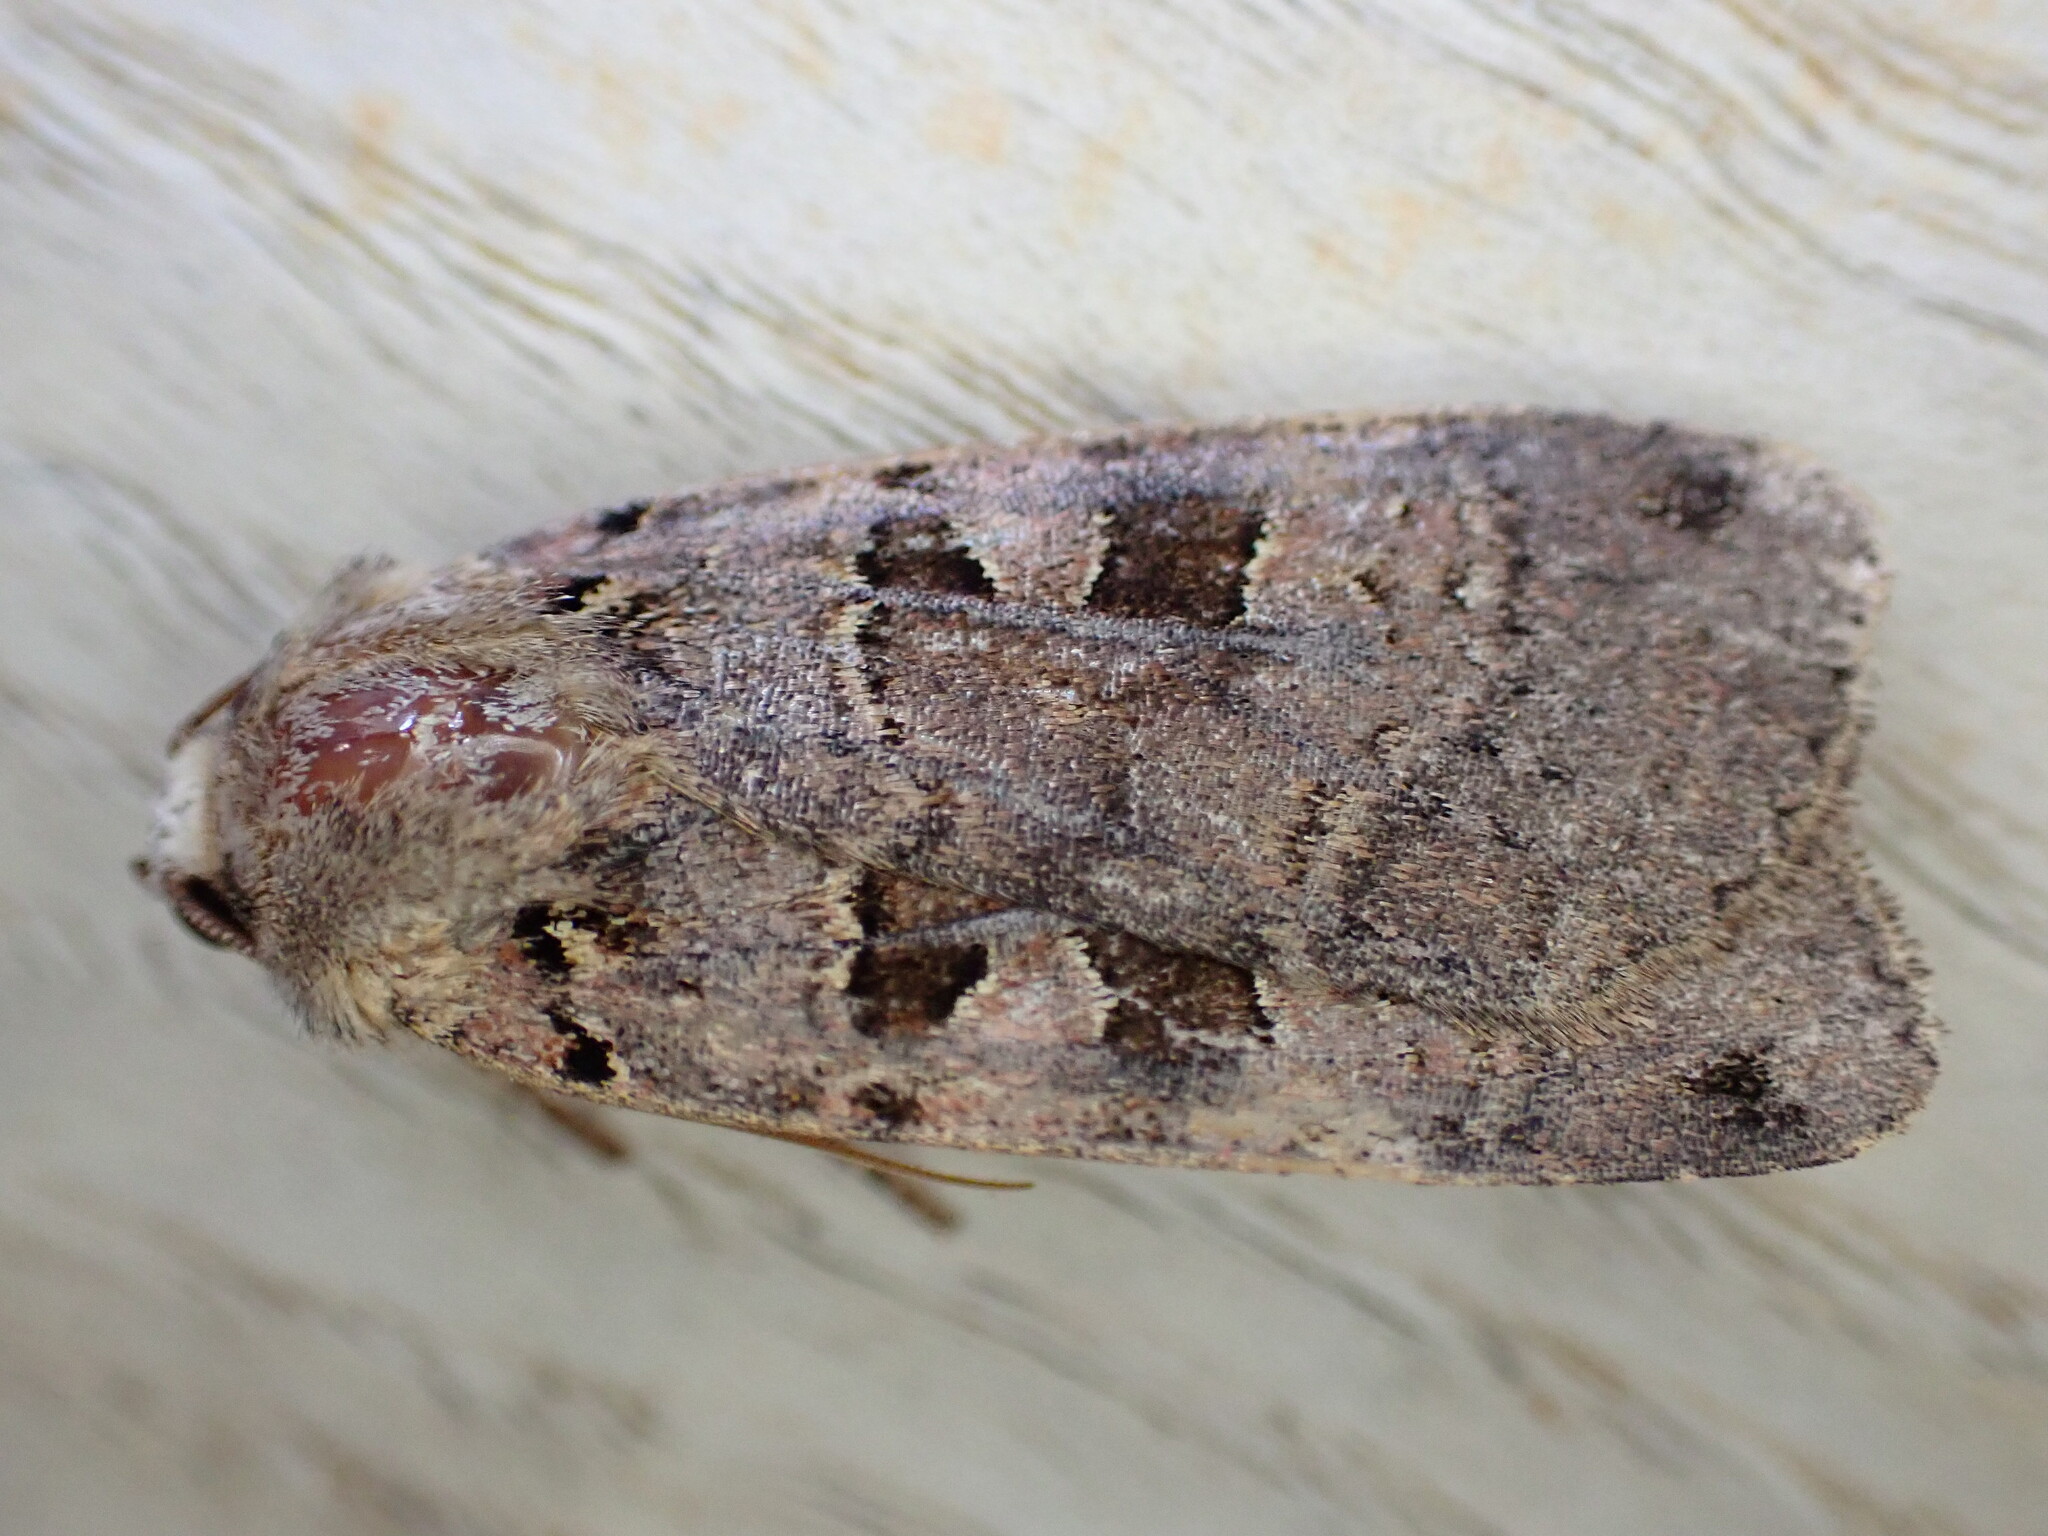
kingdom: Animalia
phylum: Arthropoda
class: Insecta
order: Lepidoptera
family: Noctuidae
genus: Xestia
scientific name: Xestia triangulum
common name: Double square-spot
